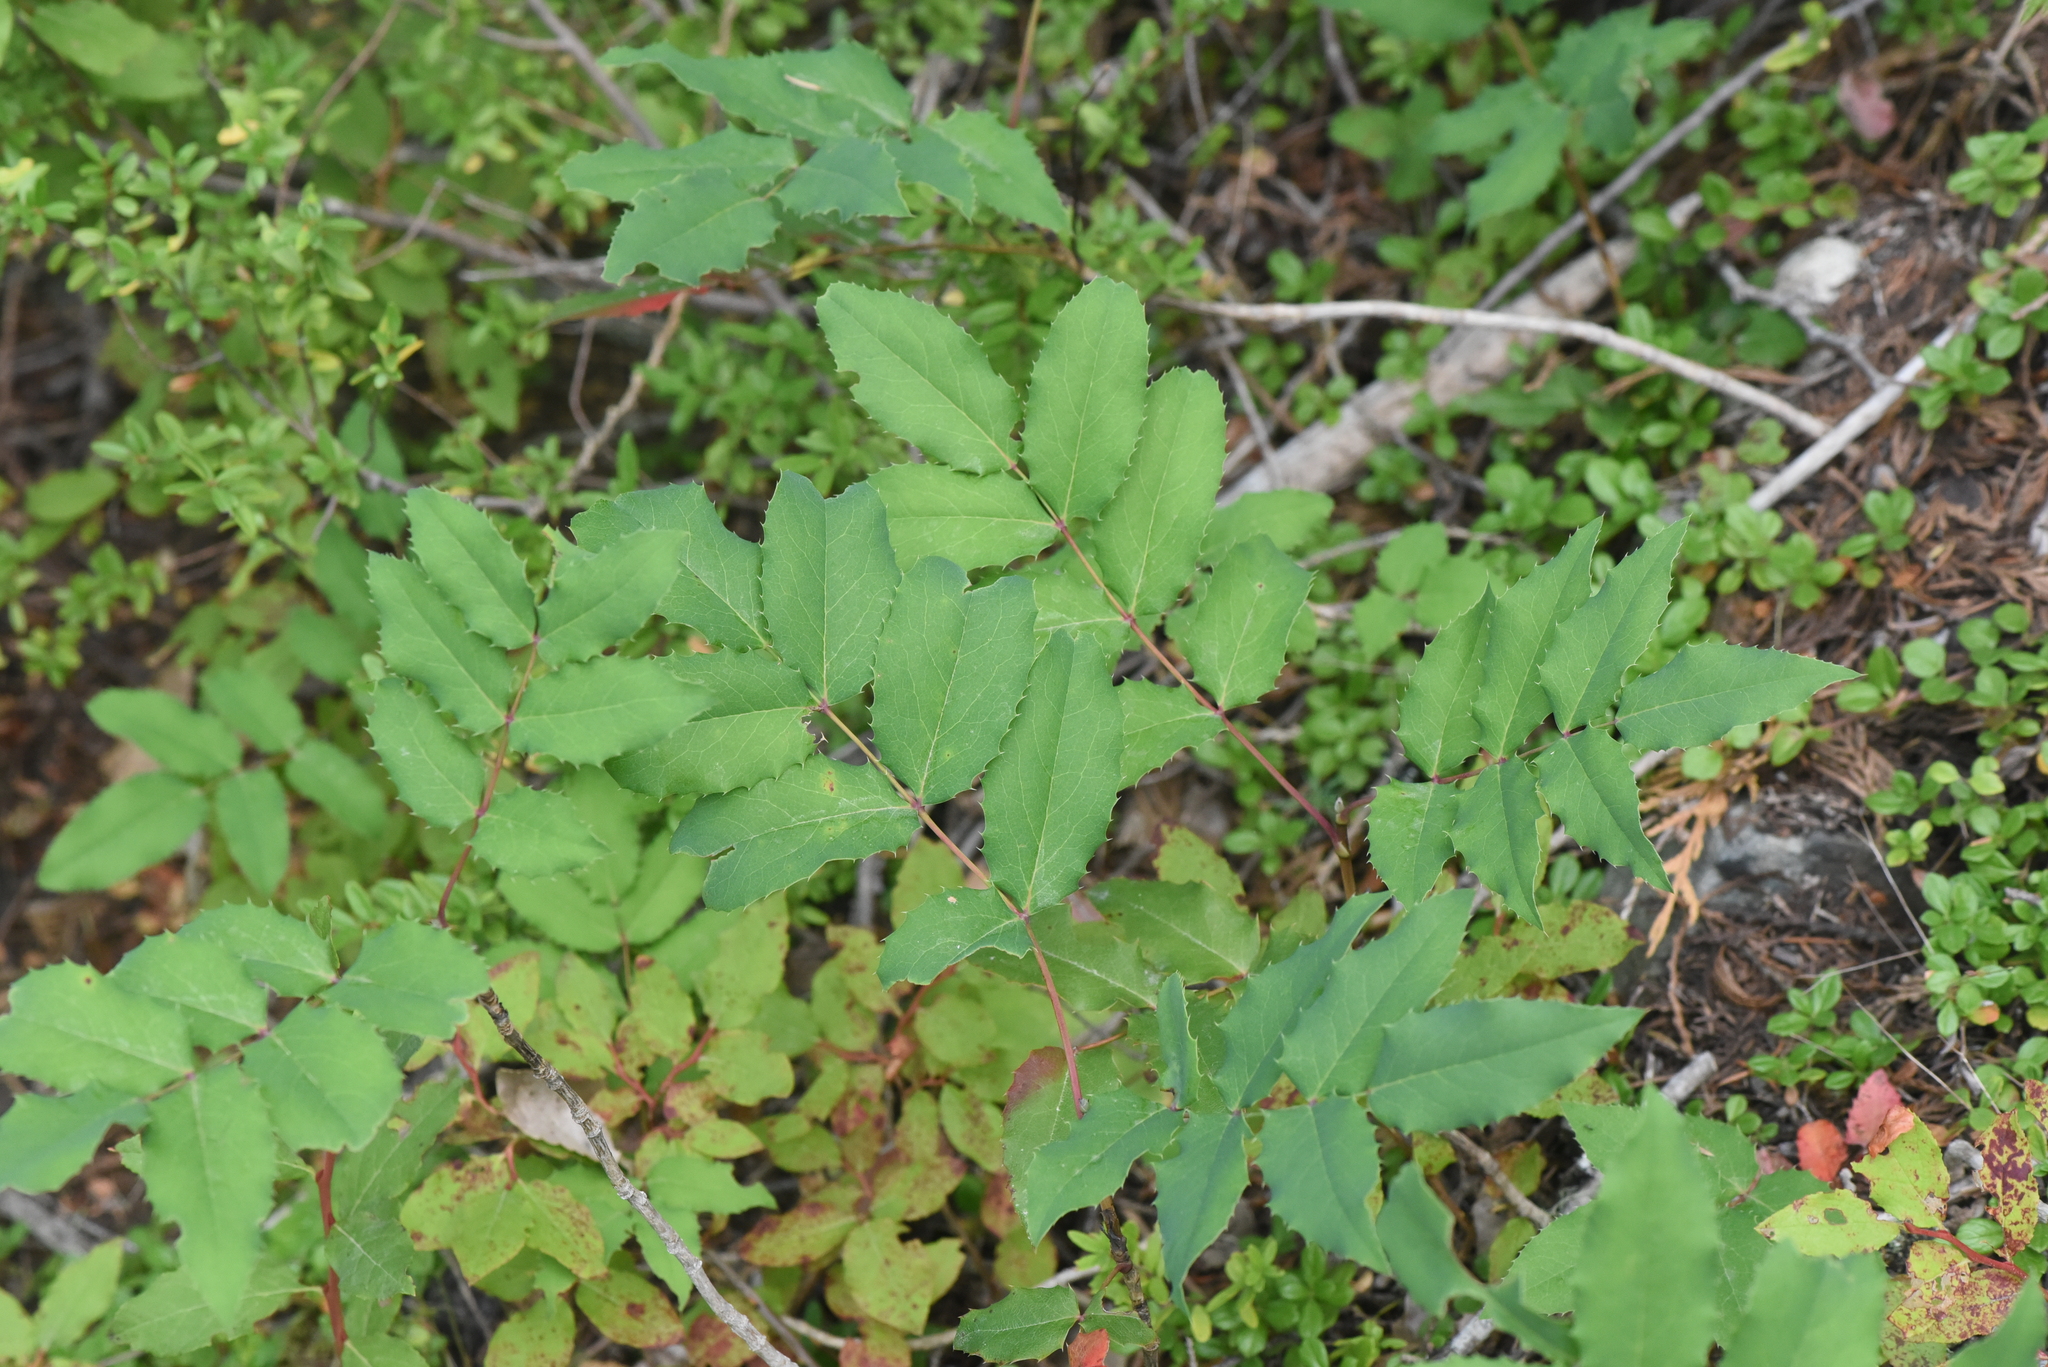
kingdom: Plantae
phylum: Tracheophyta
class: Magnoliopsida
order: Ranunculales
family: Berberidaceae
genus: Mahonia
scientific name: Mahonia aquifolium
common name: Oregon-grape
